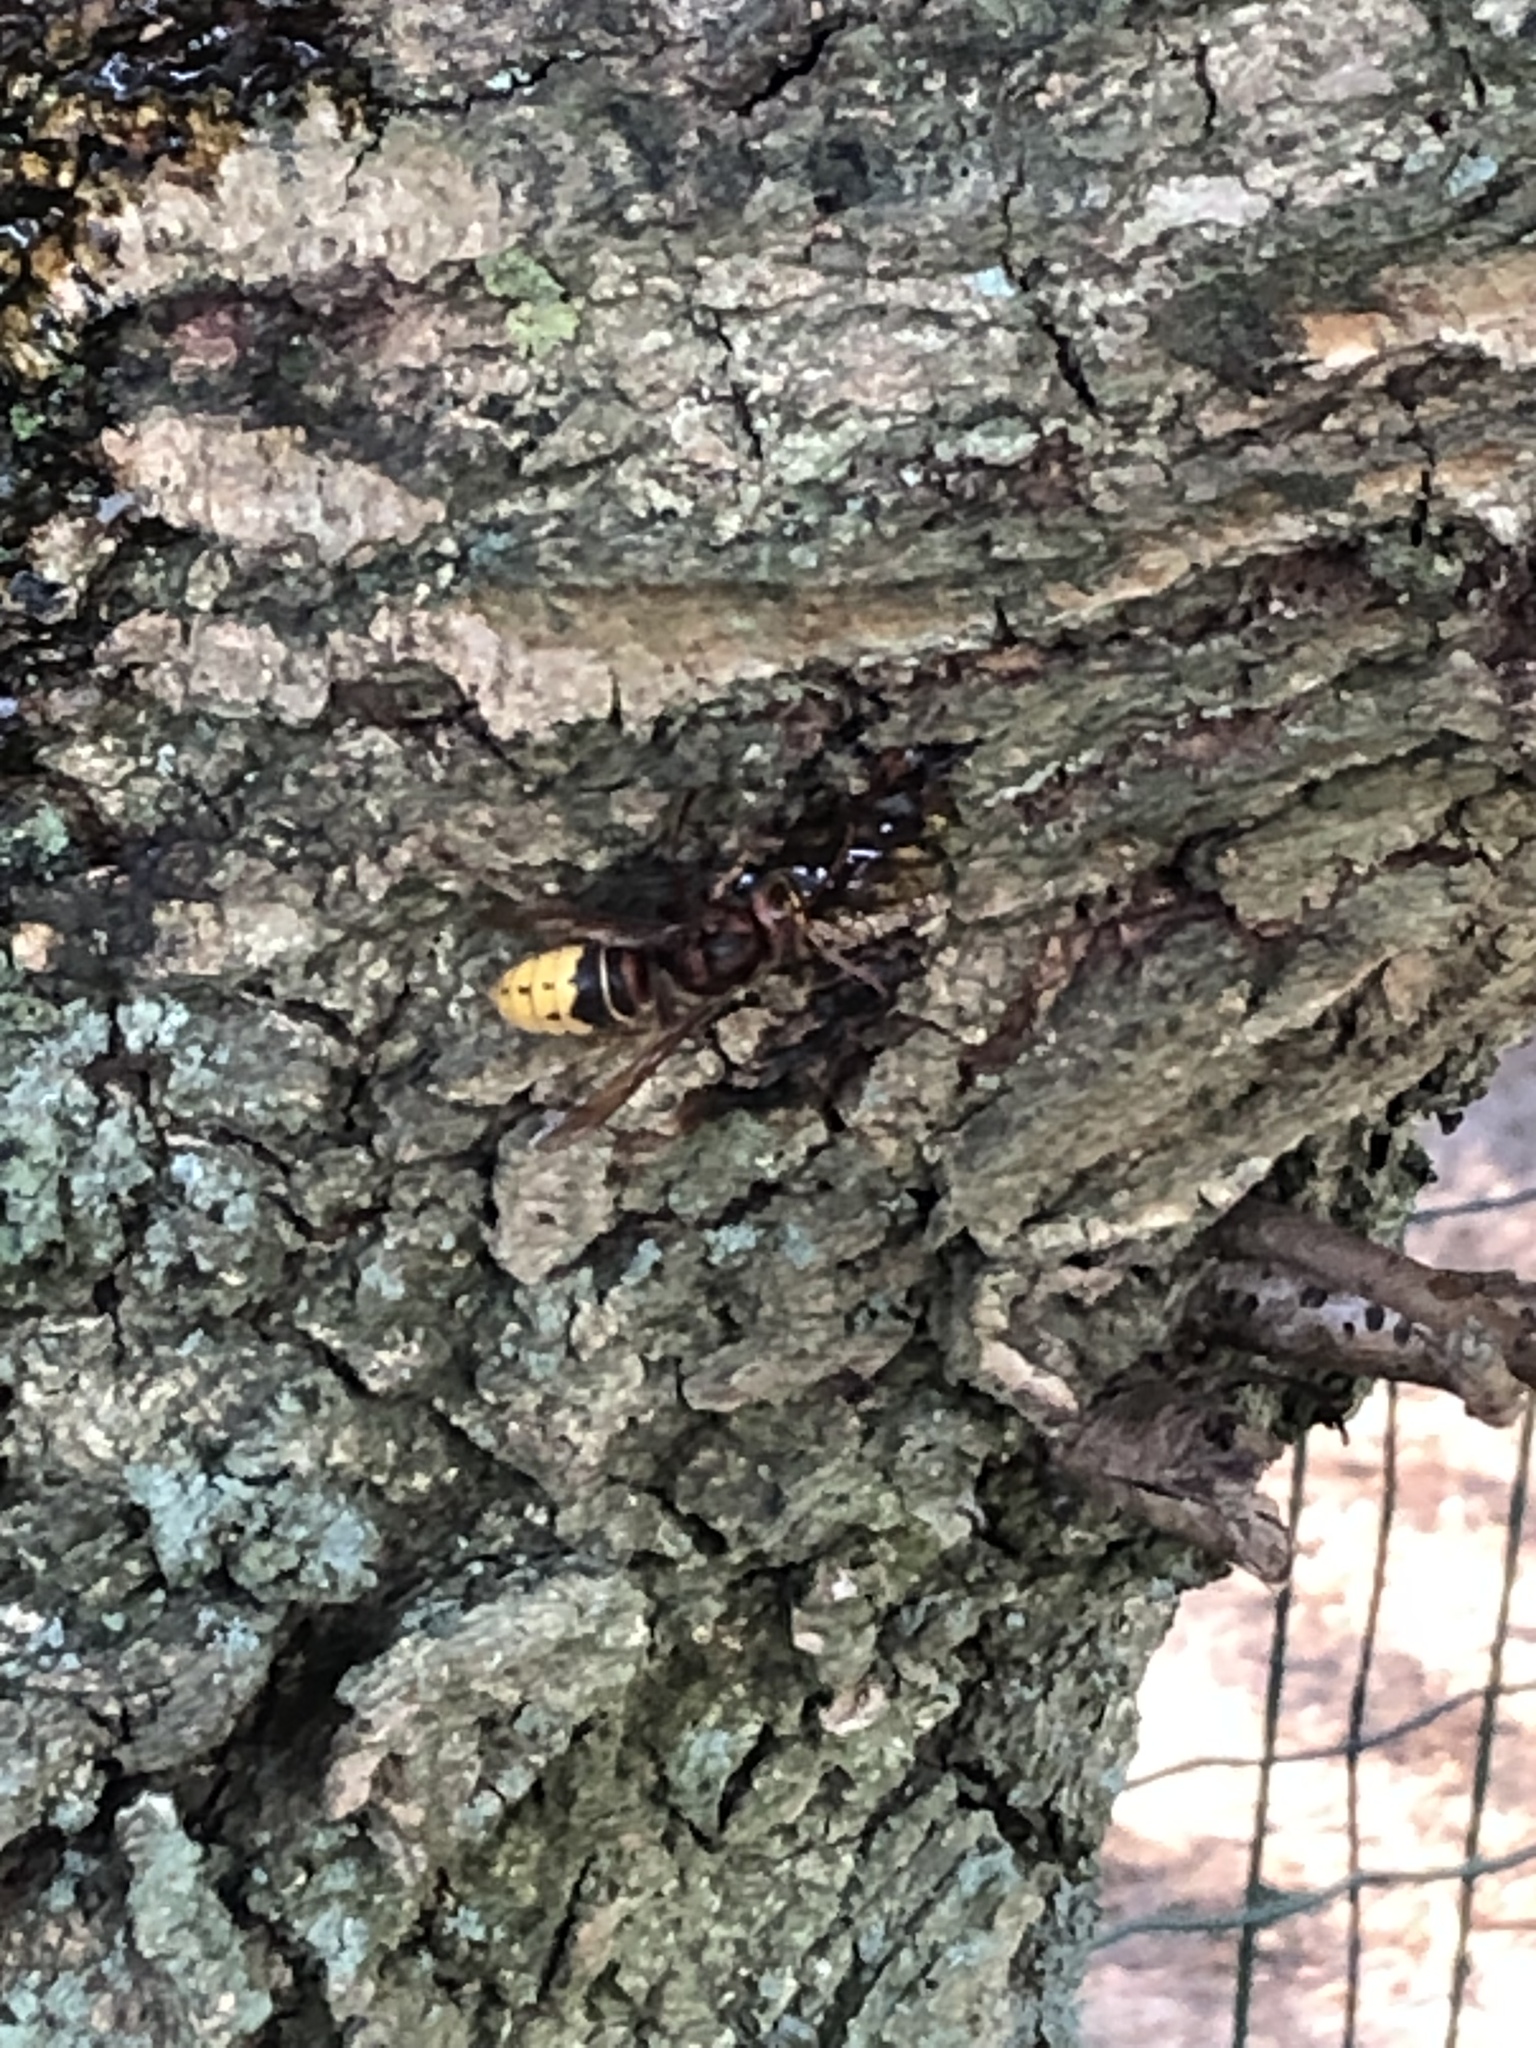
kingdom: Animalia
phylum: Arthropoda
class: Insecta
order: Hymenoptera
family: Vespidae
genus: Vespa
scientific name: Vespa crabro
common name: Hornet
